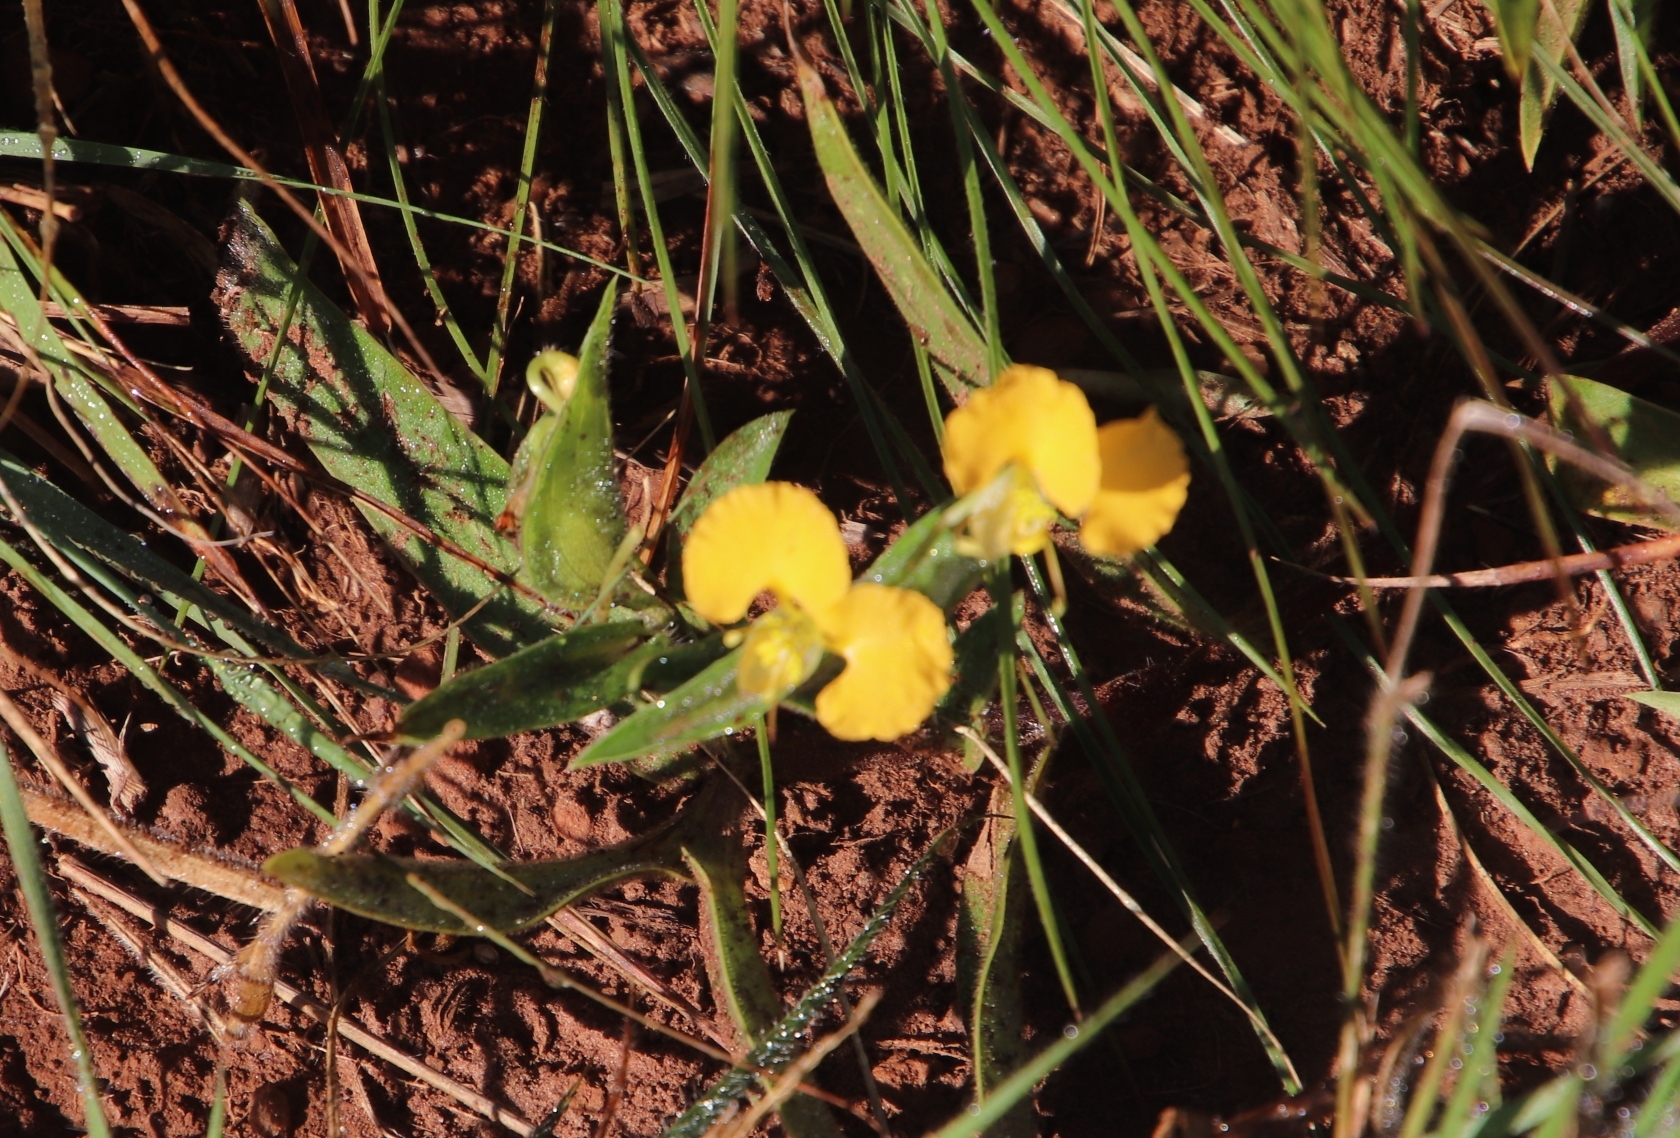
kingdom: Plantae
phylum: Tracheophyta
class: Liliopsida
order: Commelinales
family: Commelinaceae
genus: Commelina
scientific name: Commelina africana
